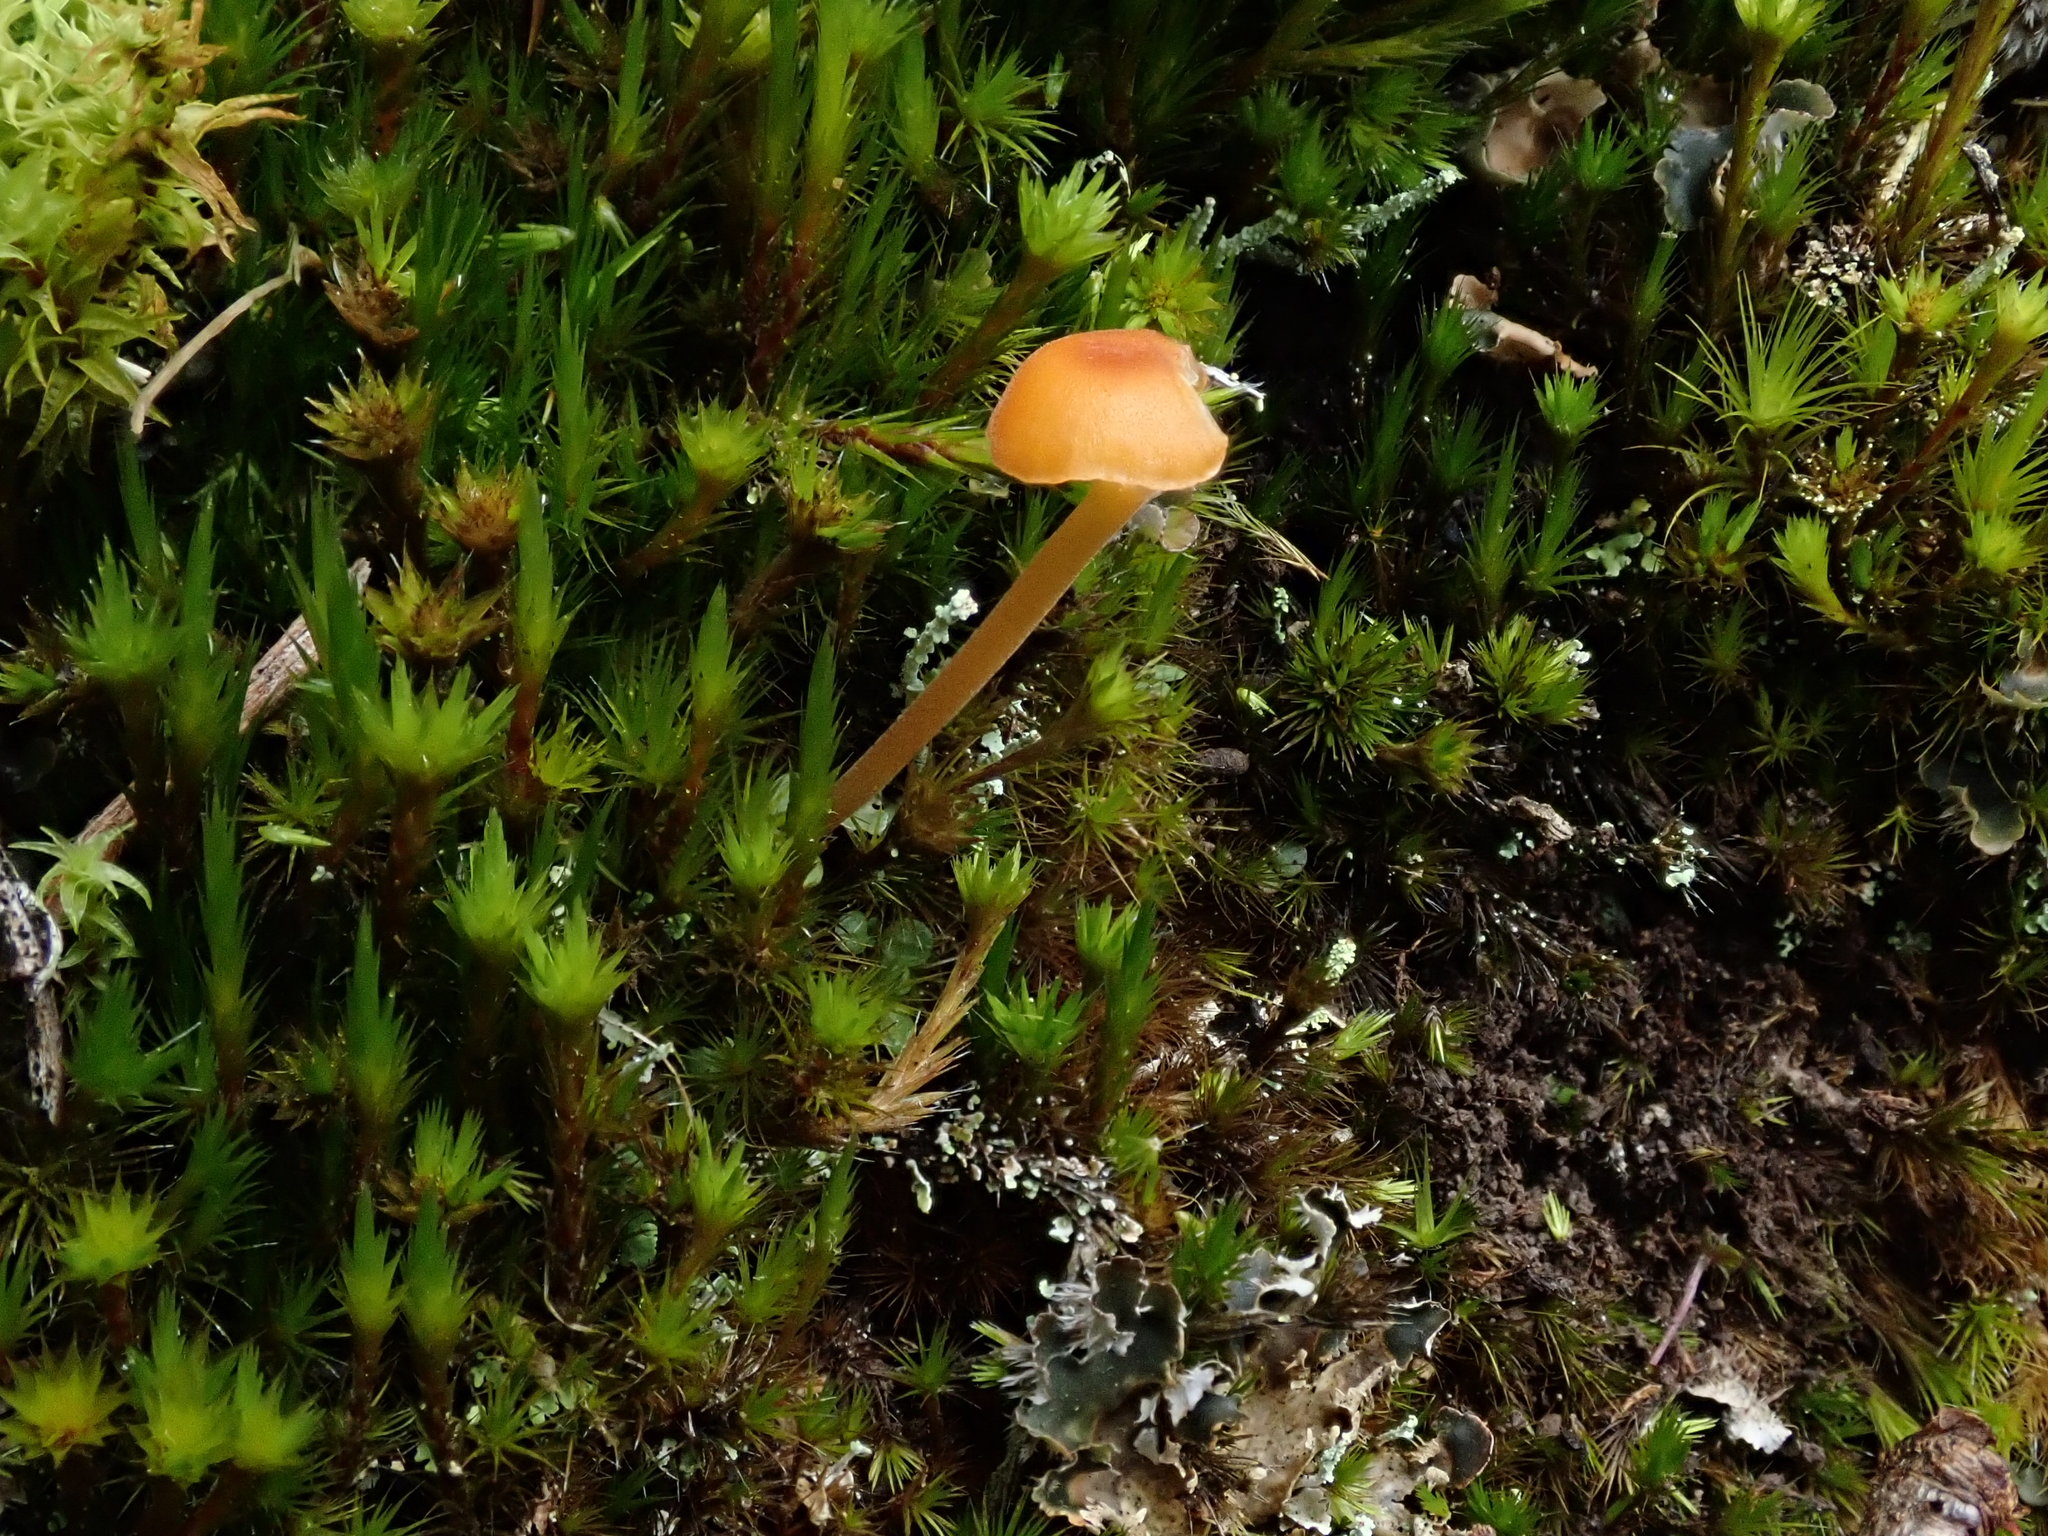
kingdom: Fungi
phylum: Basidiomycota
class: Agaricomycetes
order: Hymenochaetales
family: Rickenellaceae
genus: Rickenella
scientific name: Rickenella fibula
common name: Orange mosscap
